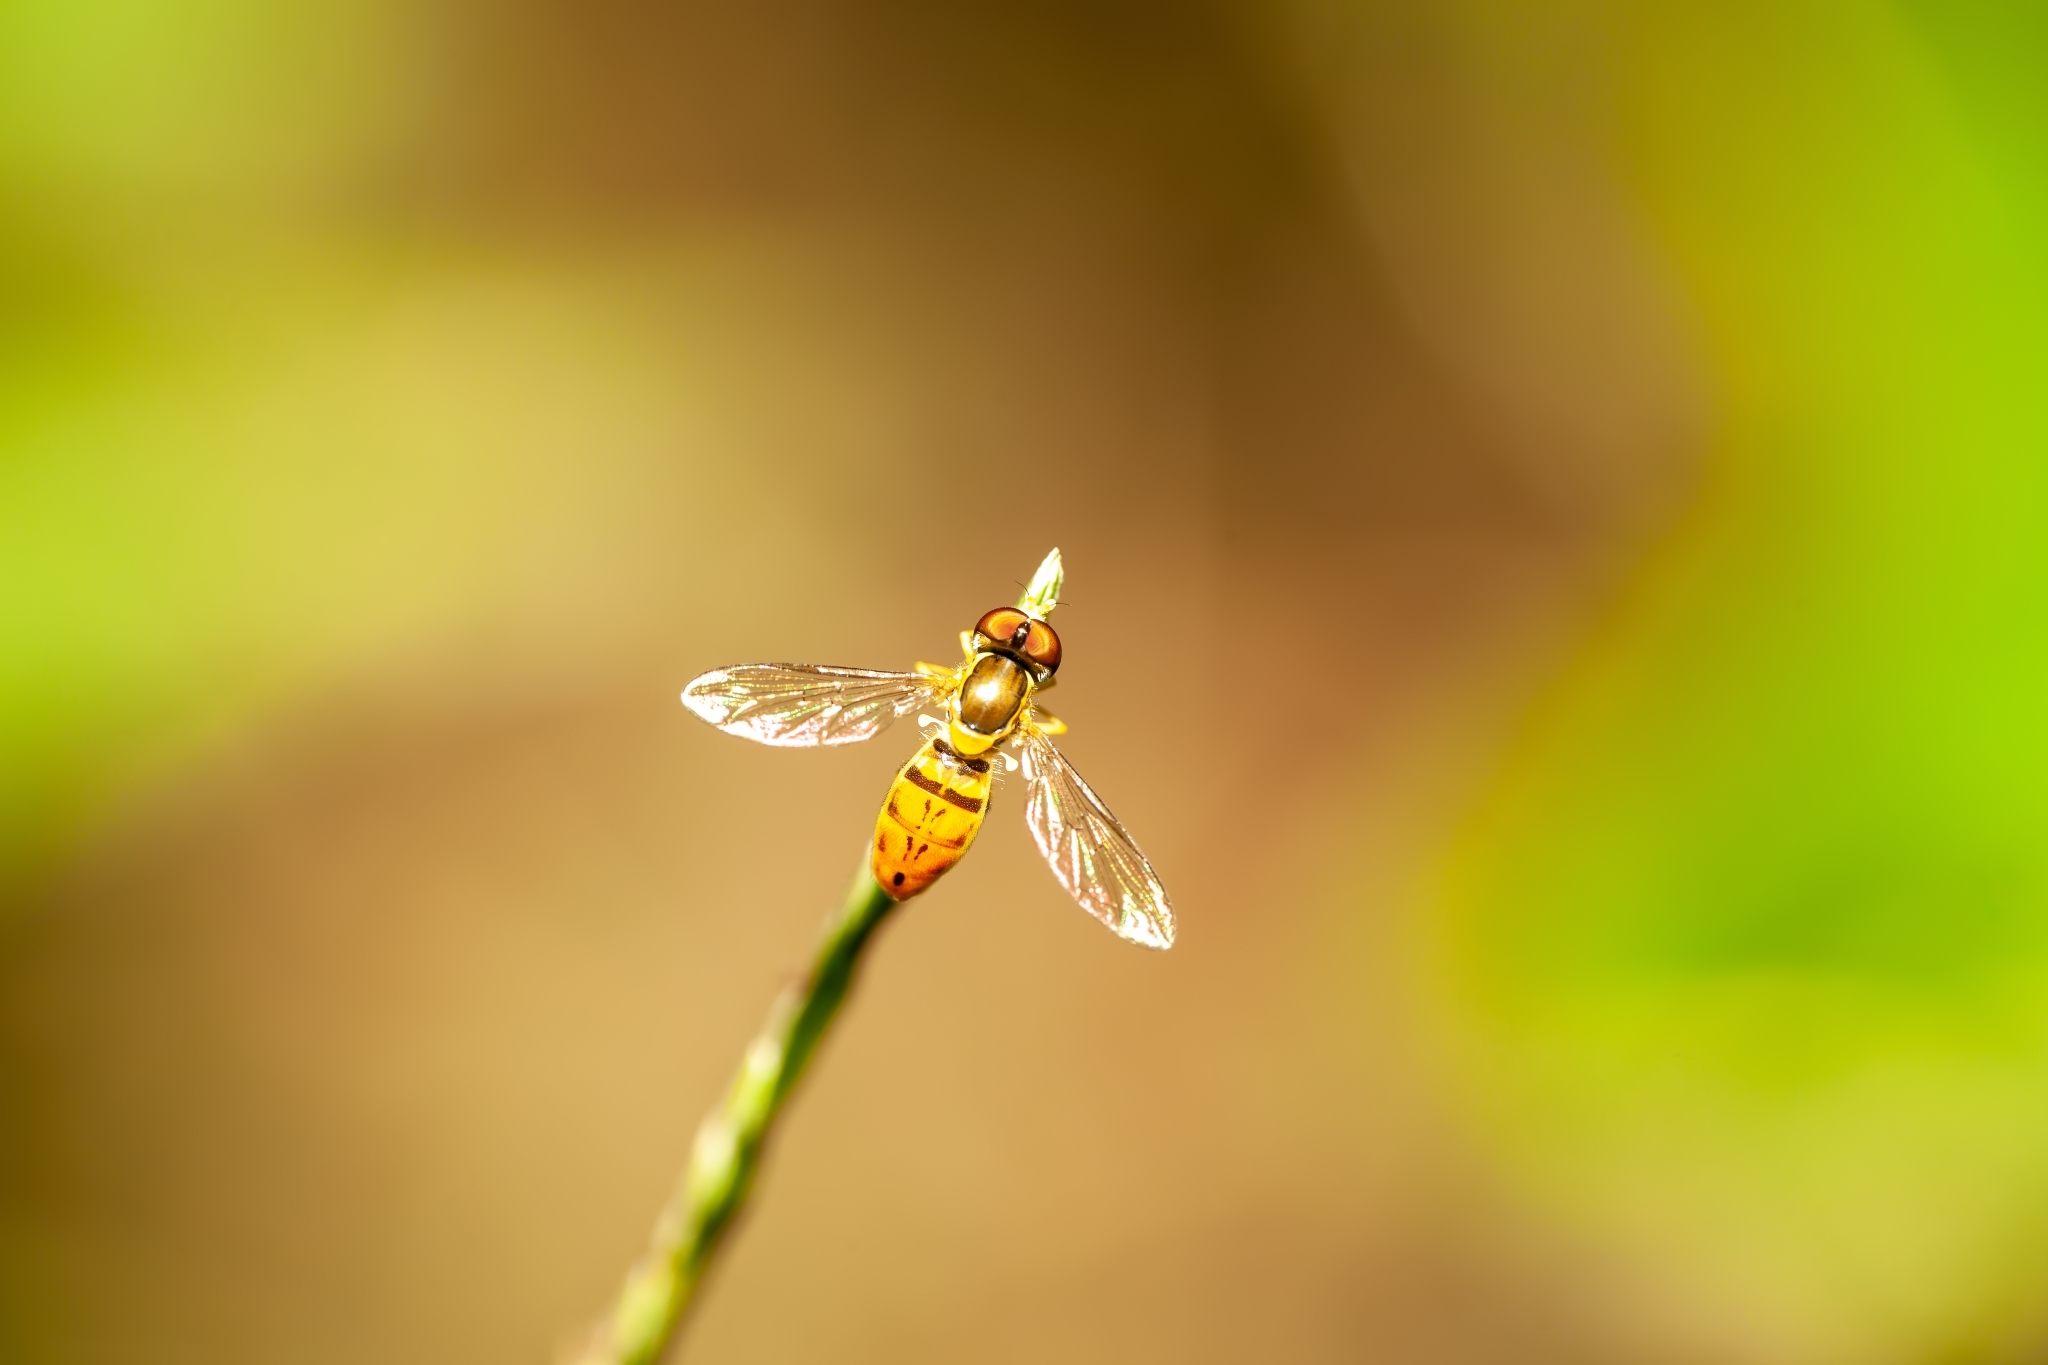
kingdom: Animalia
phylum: Arthropoda
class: Insecta
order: Diptera
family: Syrphidae
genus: Toxomerus
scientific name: Toxomerus marginatus
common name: Syrphid fly
